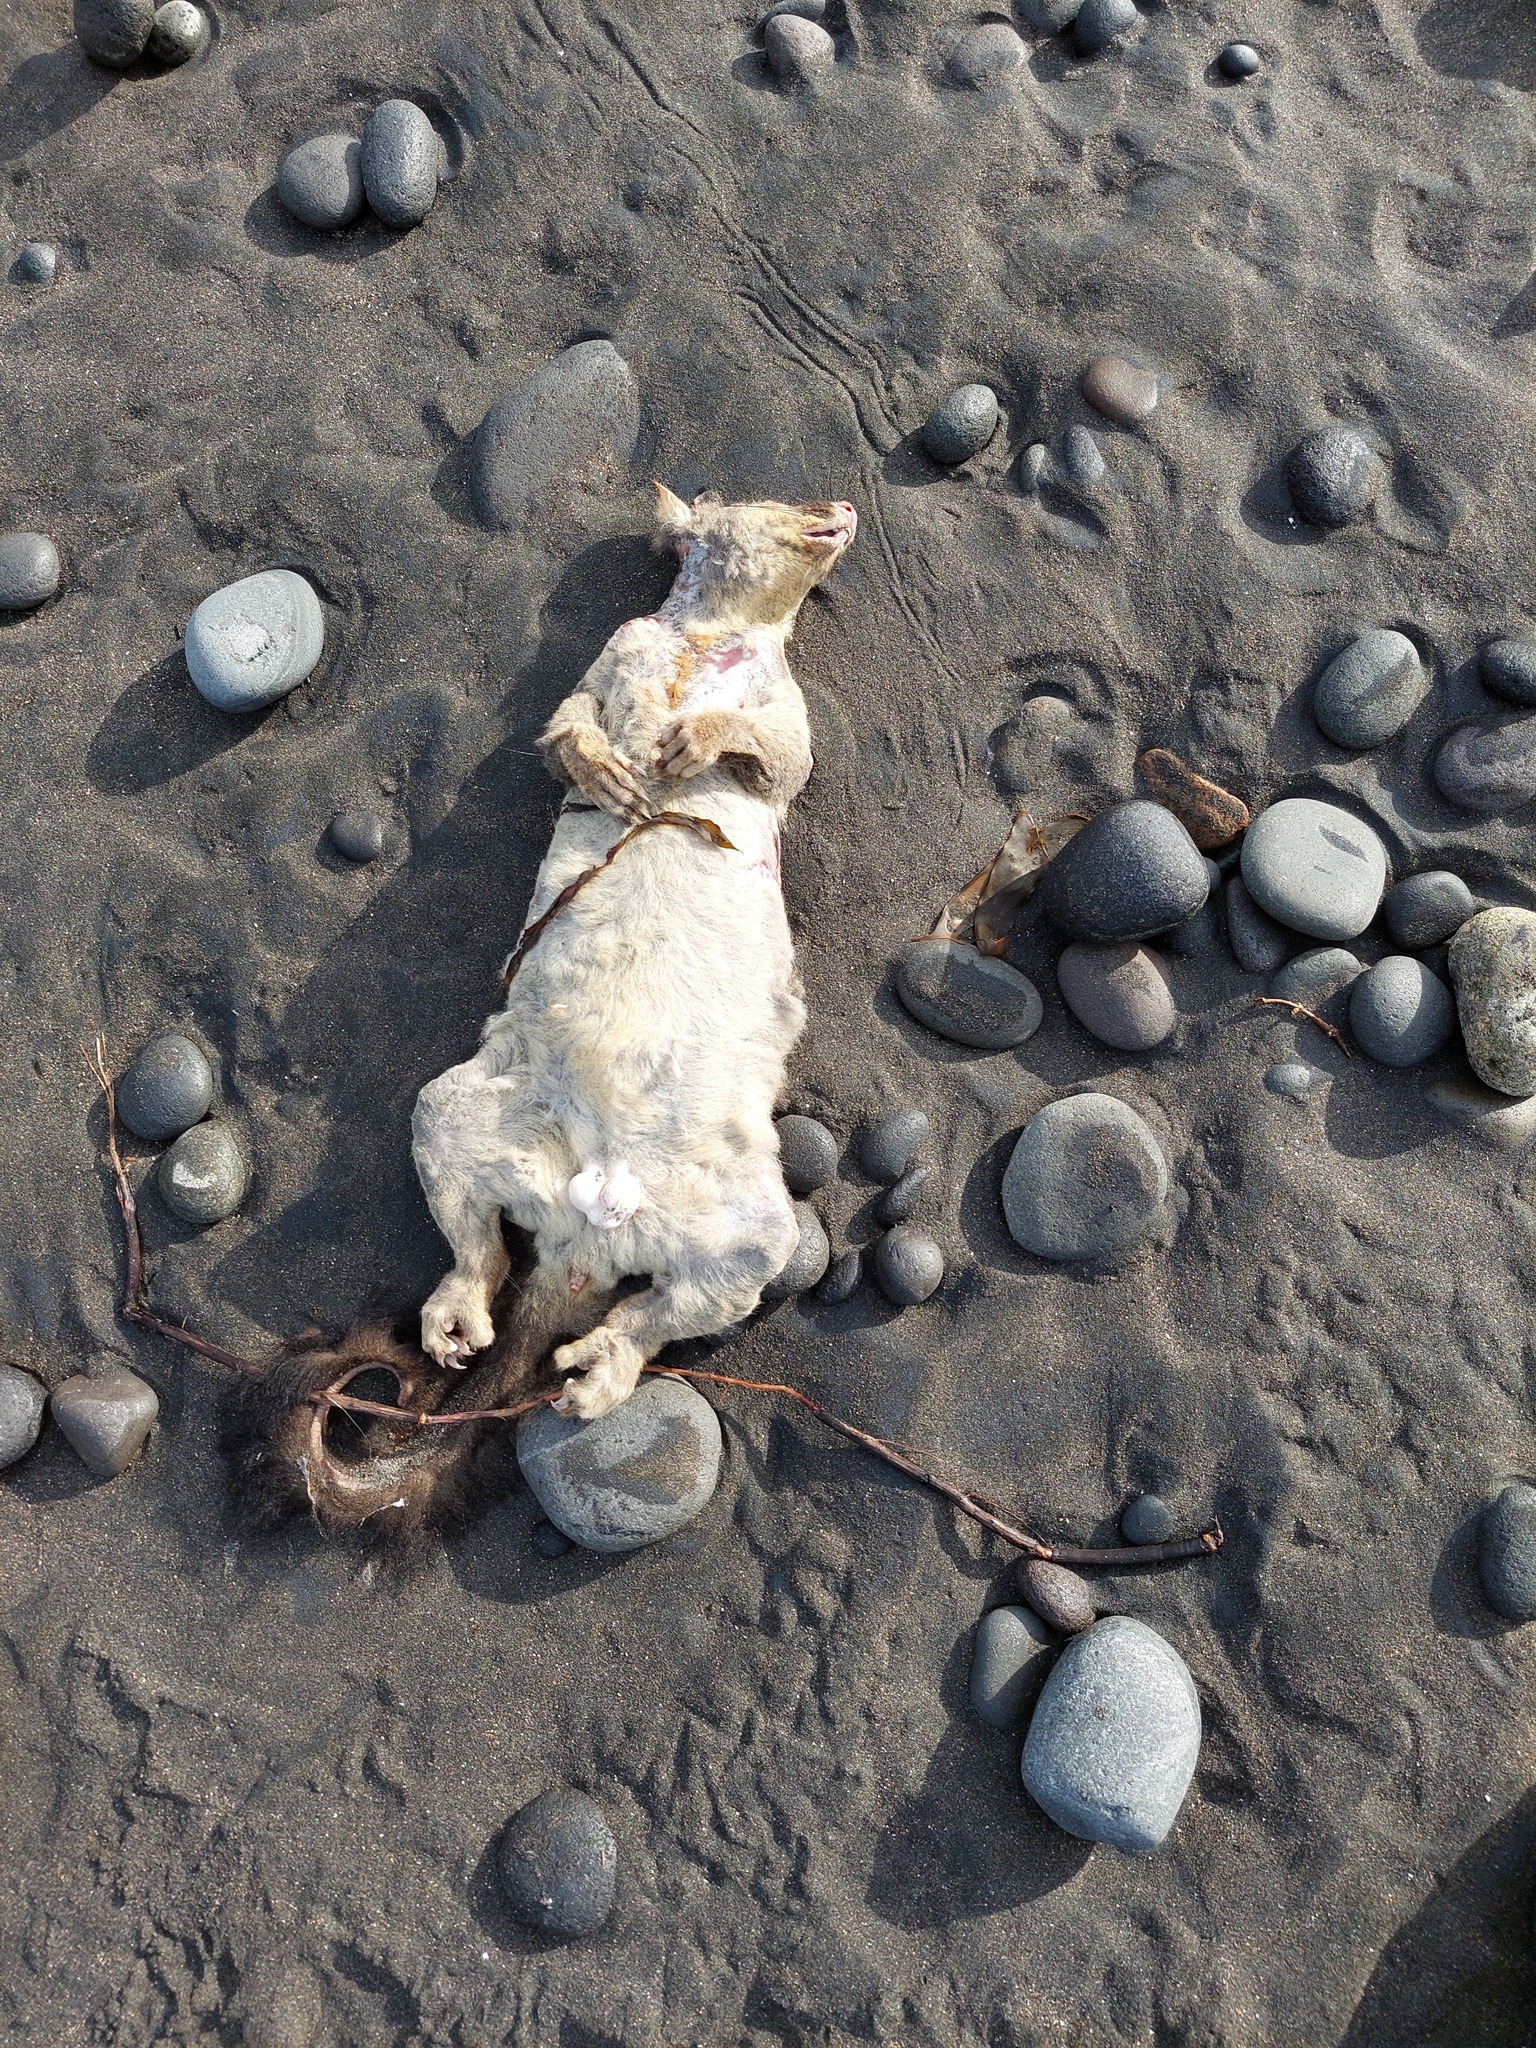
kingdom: Animalia
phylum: Chordata
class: Mammalia
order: Diprotodontia
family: Phalangeridae
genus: Trichosurus
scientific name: Trichosurus vulpecula
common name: Common brushtail
